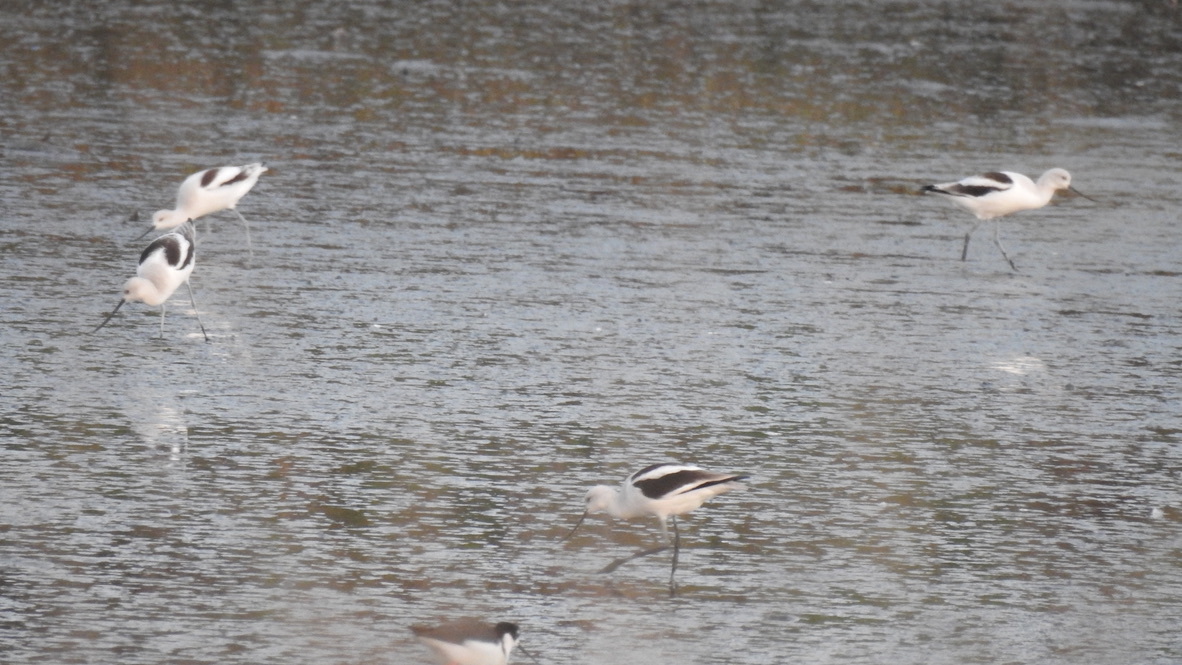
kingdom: Animalia
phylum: Chordata
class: Aves
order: Charadriiformes
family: Recurvirostridae
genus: Recurvirostra
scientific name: Recurvirostra americana
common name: American avocet
